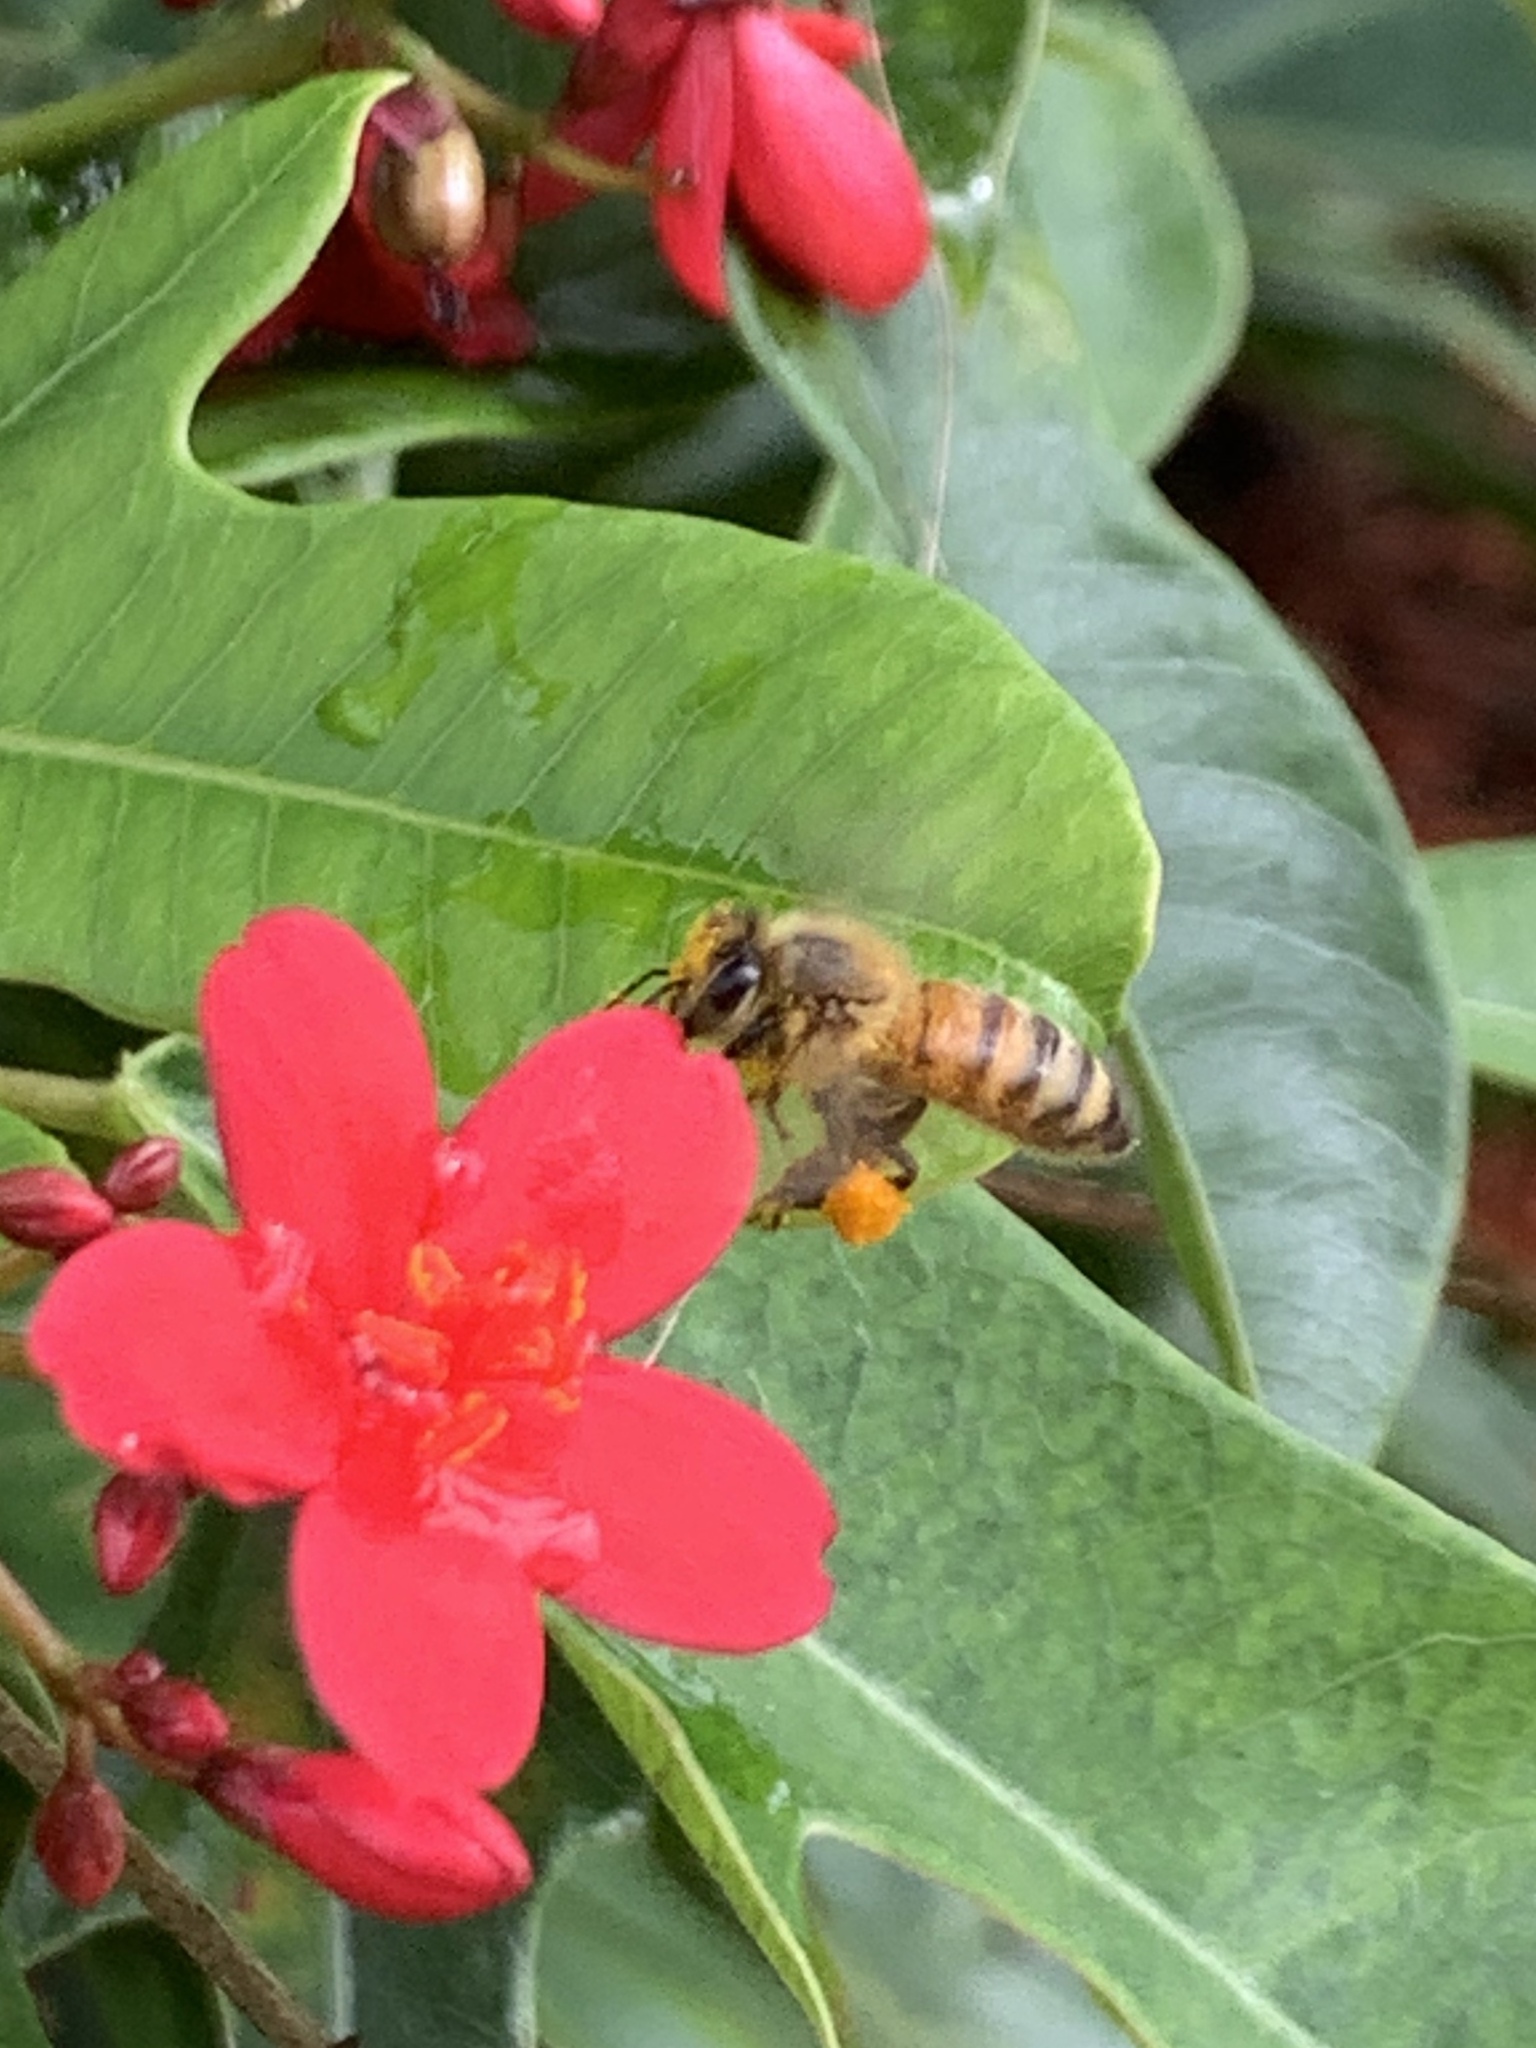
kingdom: Animalia
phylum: Arthropoda
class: Insecta
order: Hymenoptera
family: Apidae
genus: Apis
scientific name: Apis mellifera
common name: Honey bee
